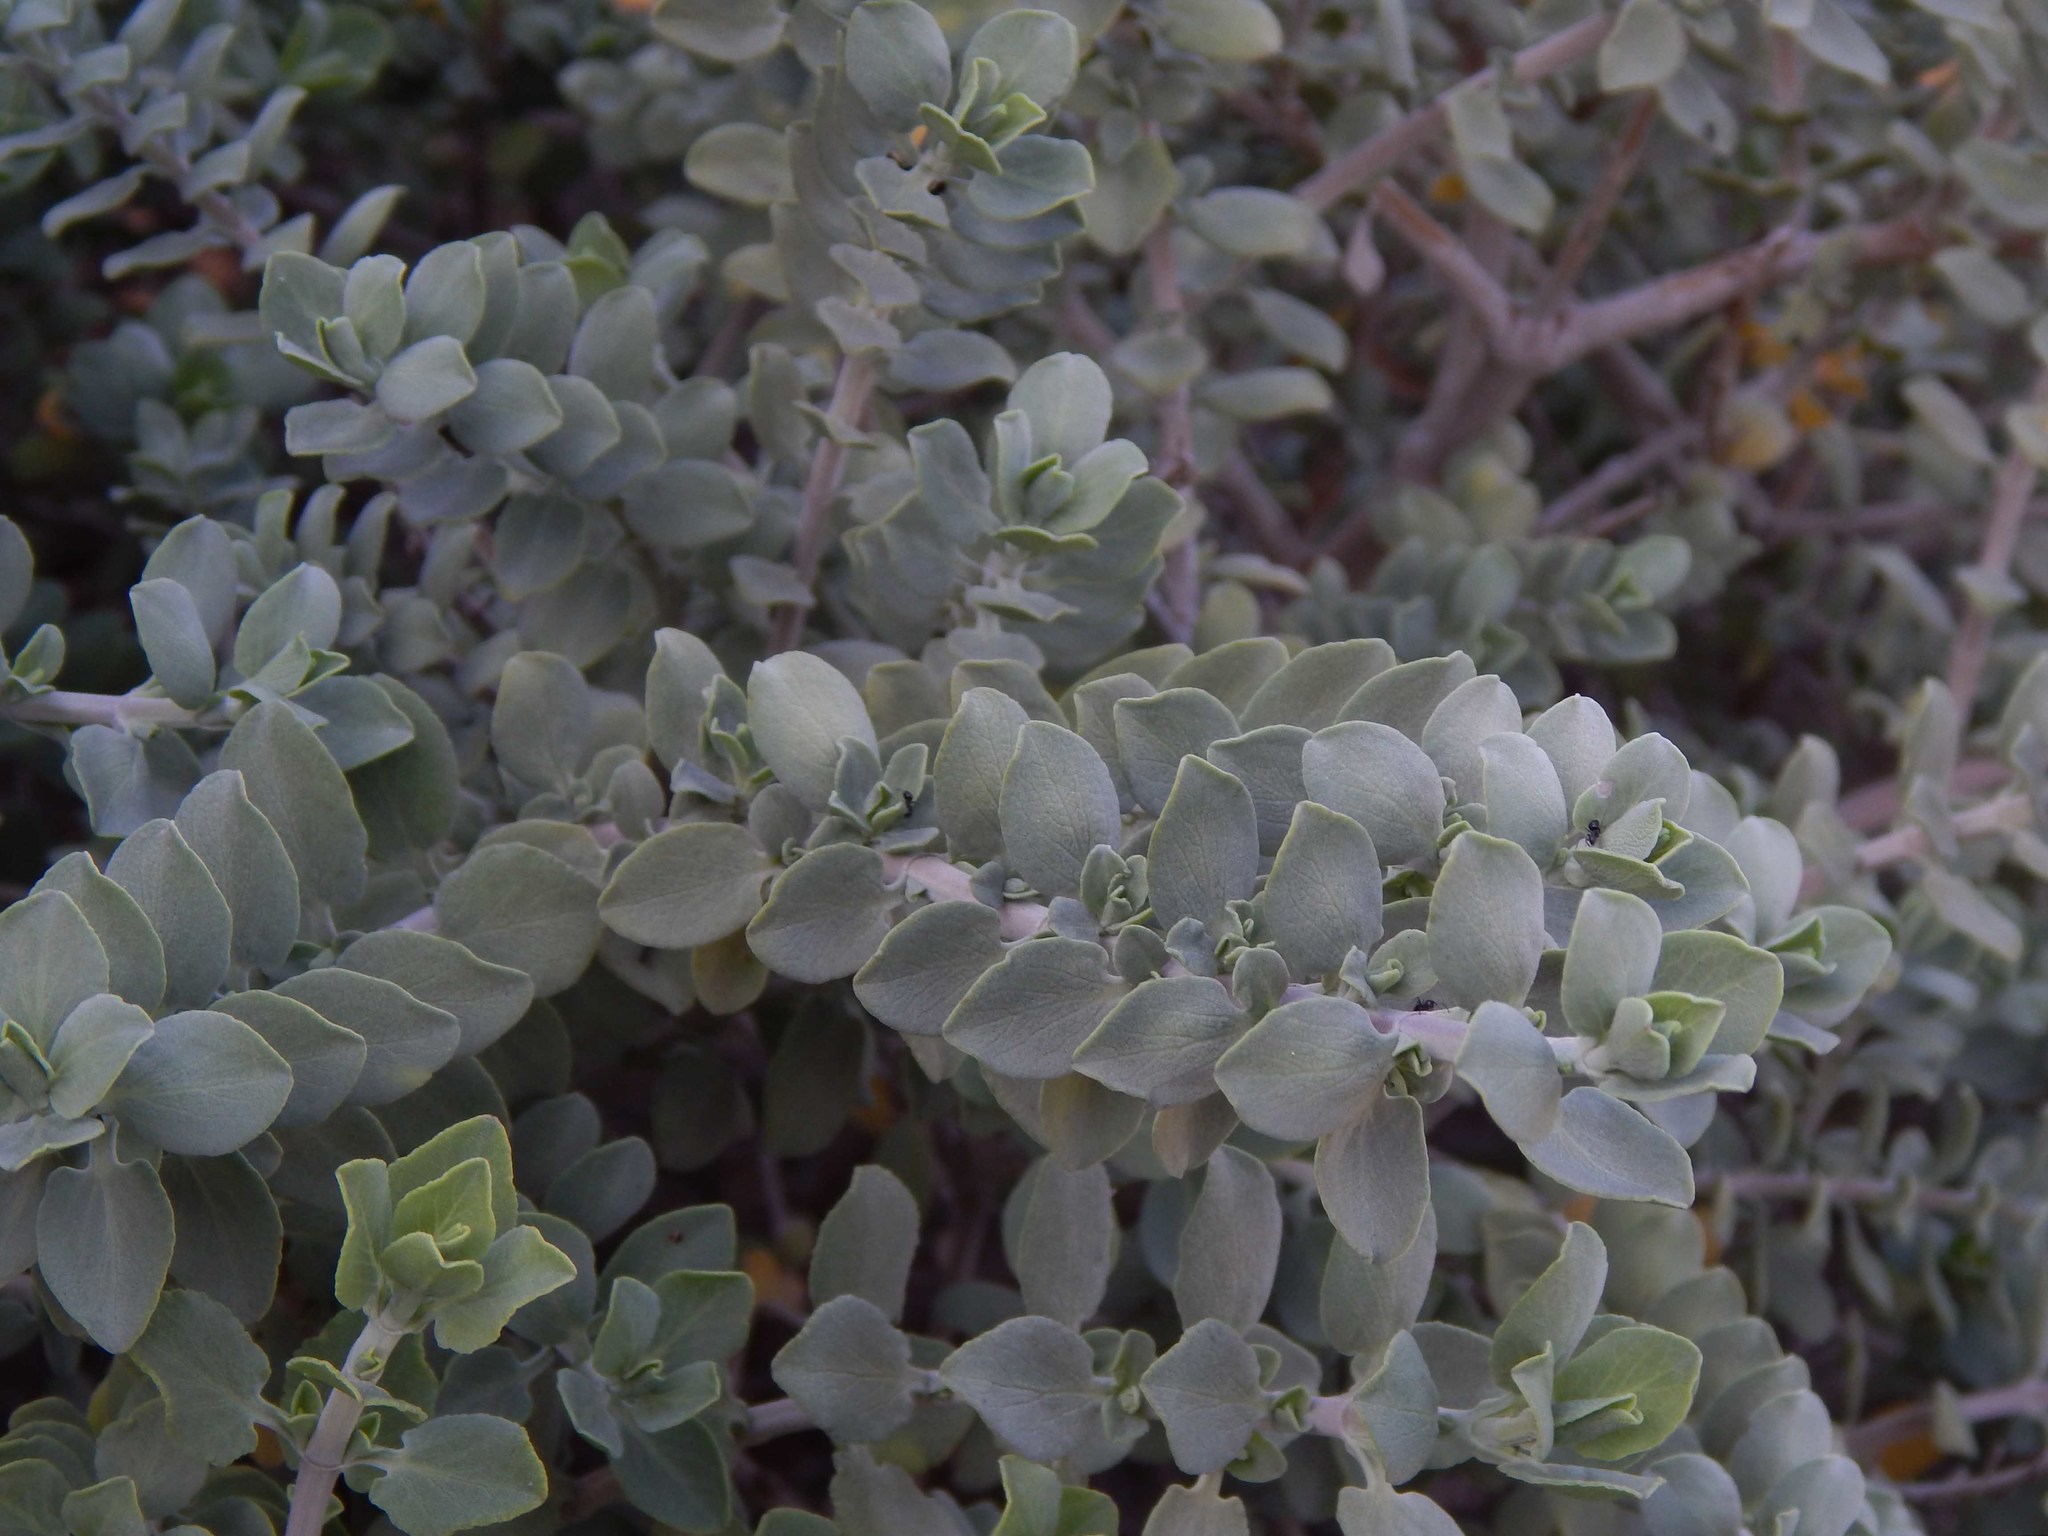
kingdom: Plantae
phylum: Tracheophyta
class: Magnoliopsida
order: Lamiales
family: Lamiaceae
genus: Salvia
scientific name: Salvia aurea
